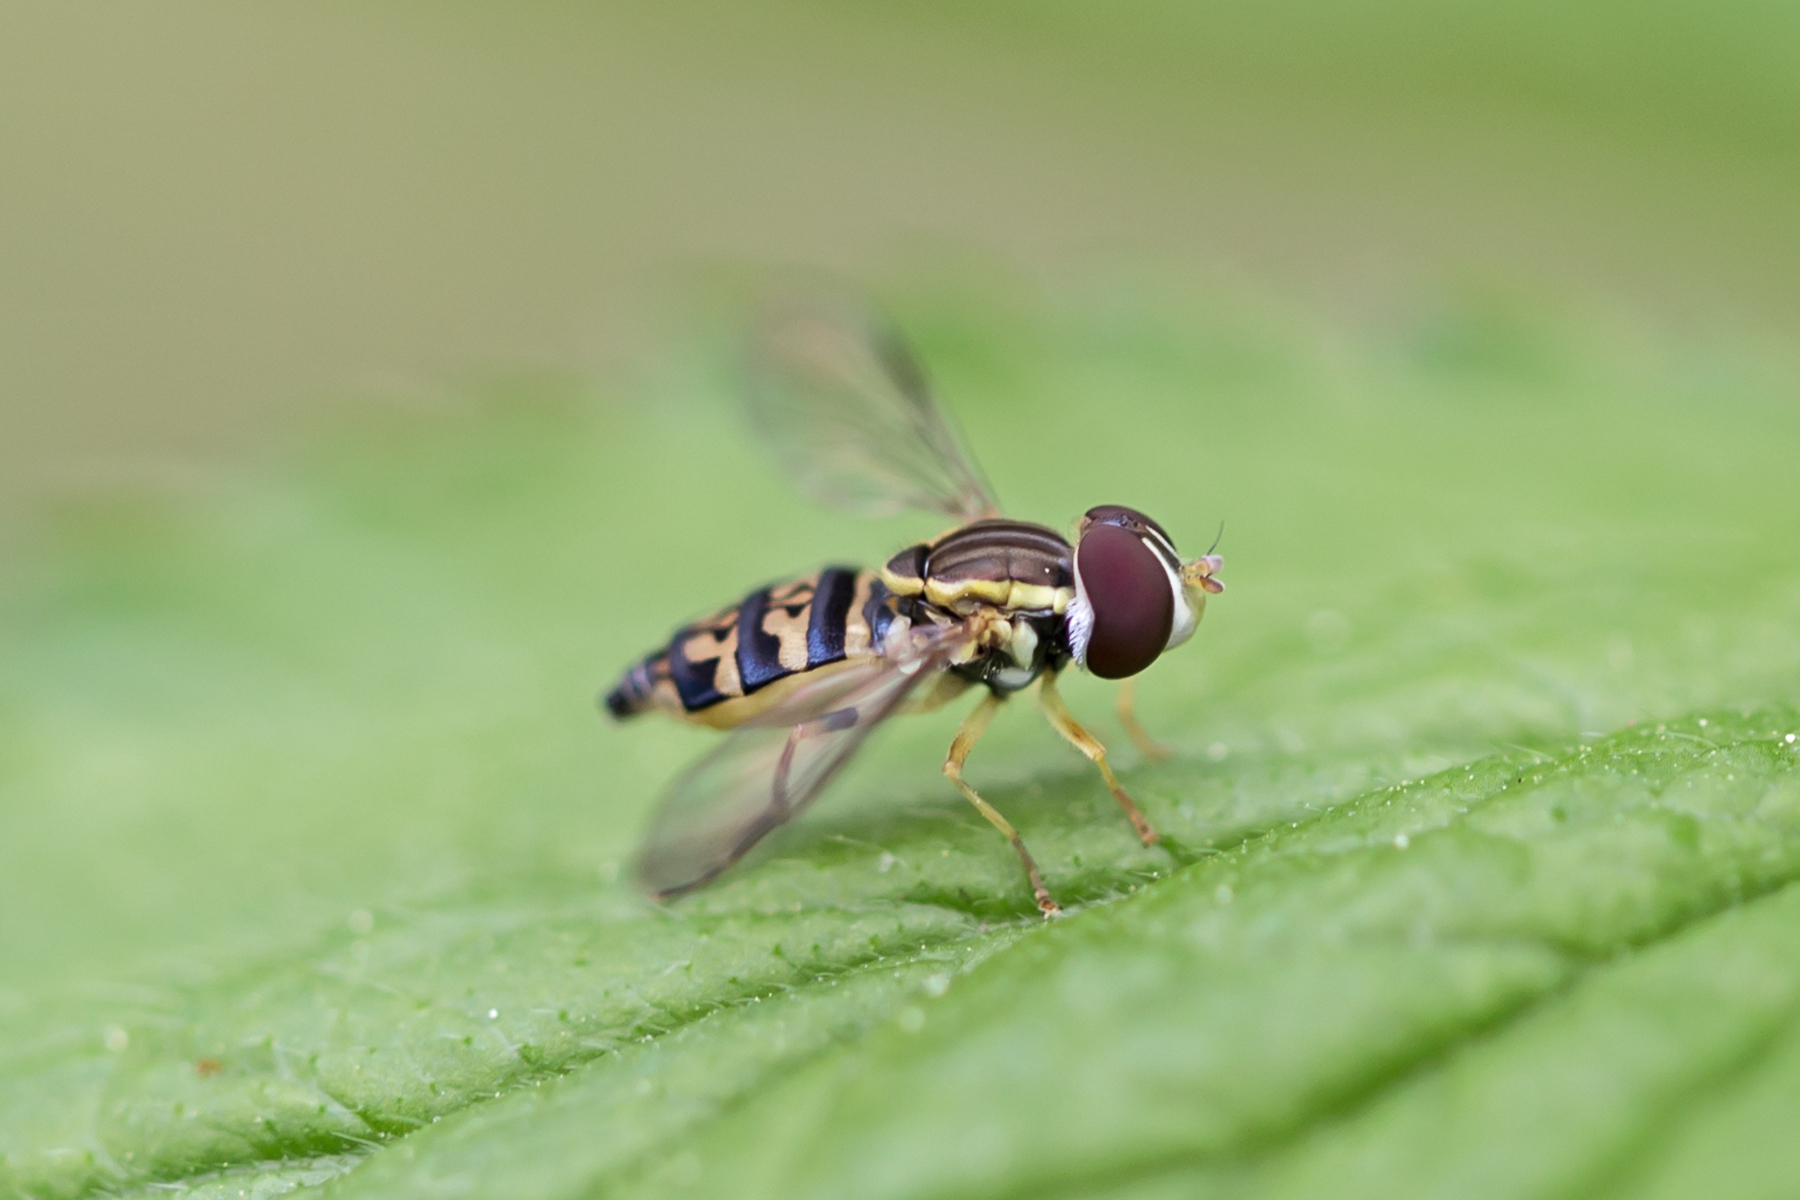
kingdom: Animalia
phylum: Arthropoda
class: Insecta
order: Diptera
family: Syrphidae
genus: Toxomerus
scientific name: Toxomerus geminatus
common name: Eastern calligrapher
